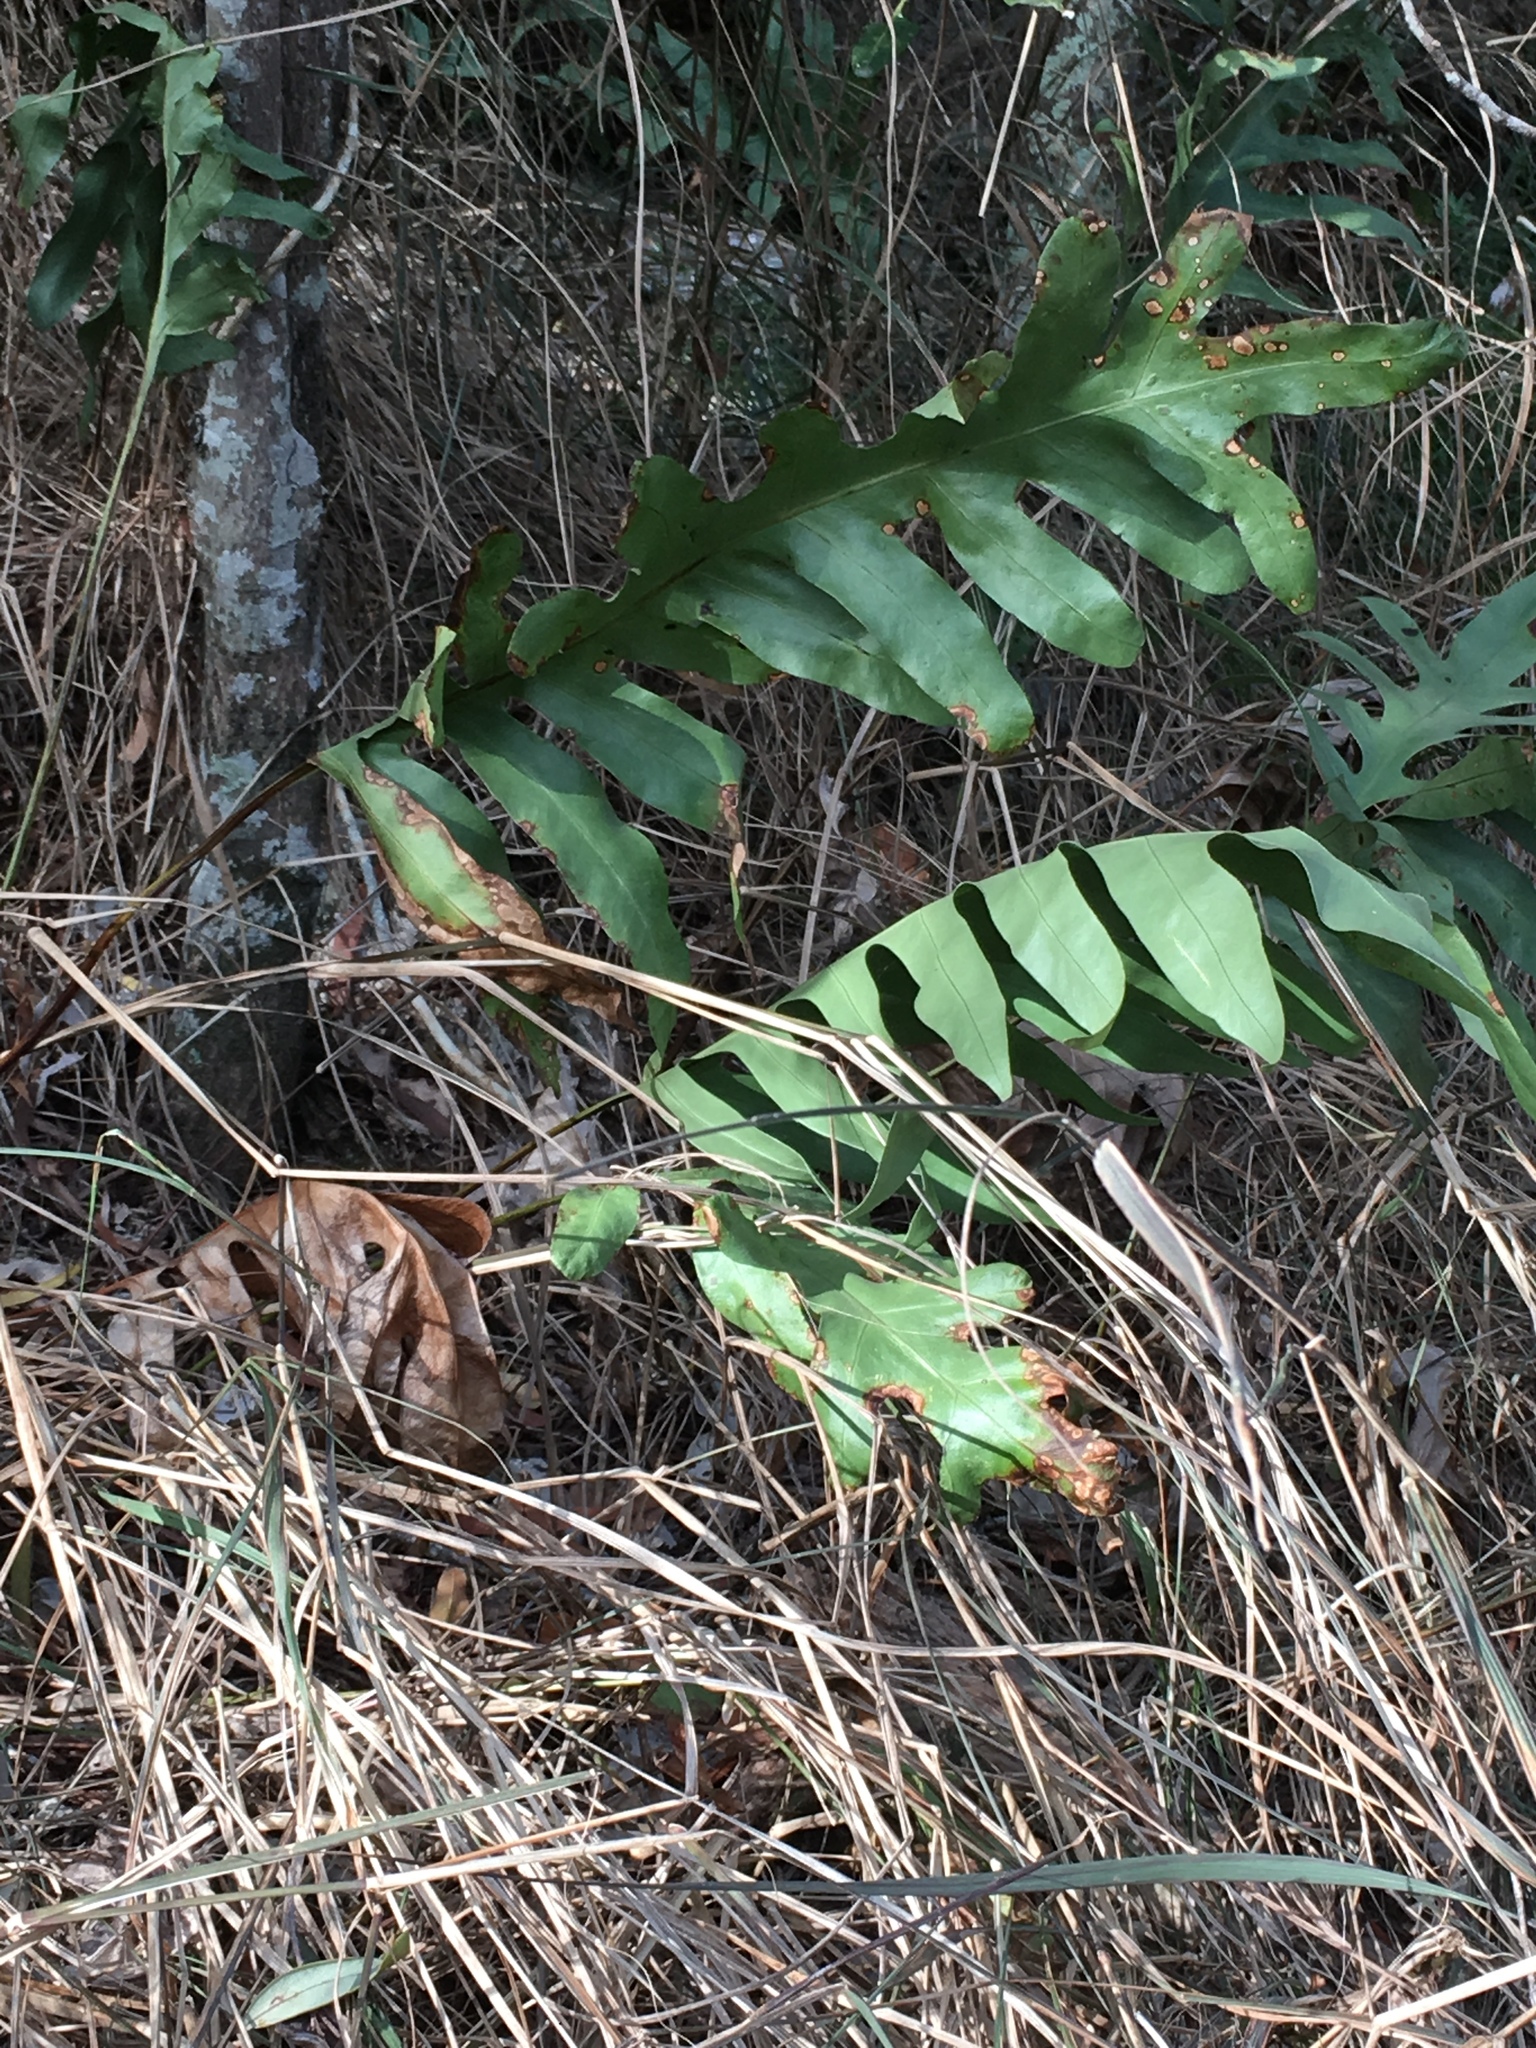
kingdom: Plantae
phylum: Tracheophyta
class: Polypodiopsida
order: Polypodiales
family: Polypodiaceae
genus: Microsorum
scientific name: Microsorum grossum
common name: Musk fern
